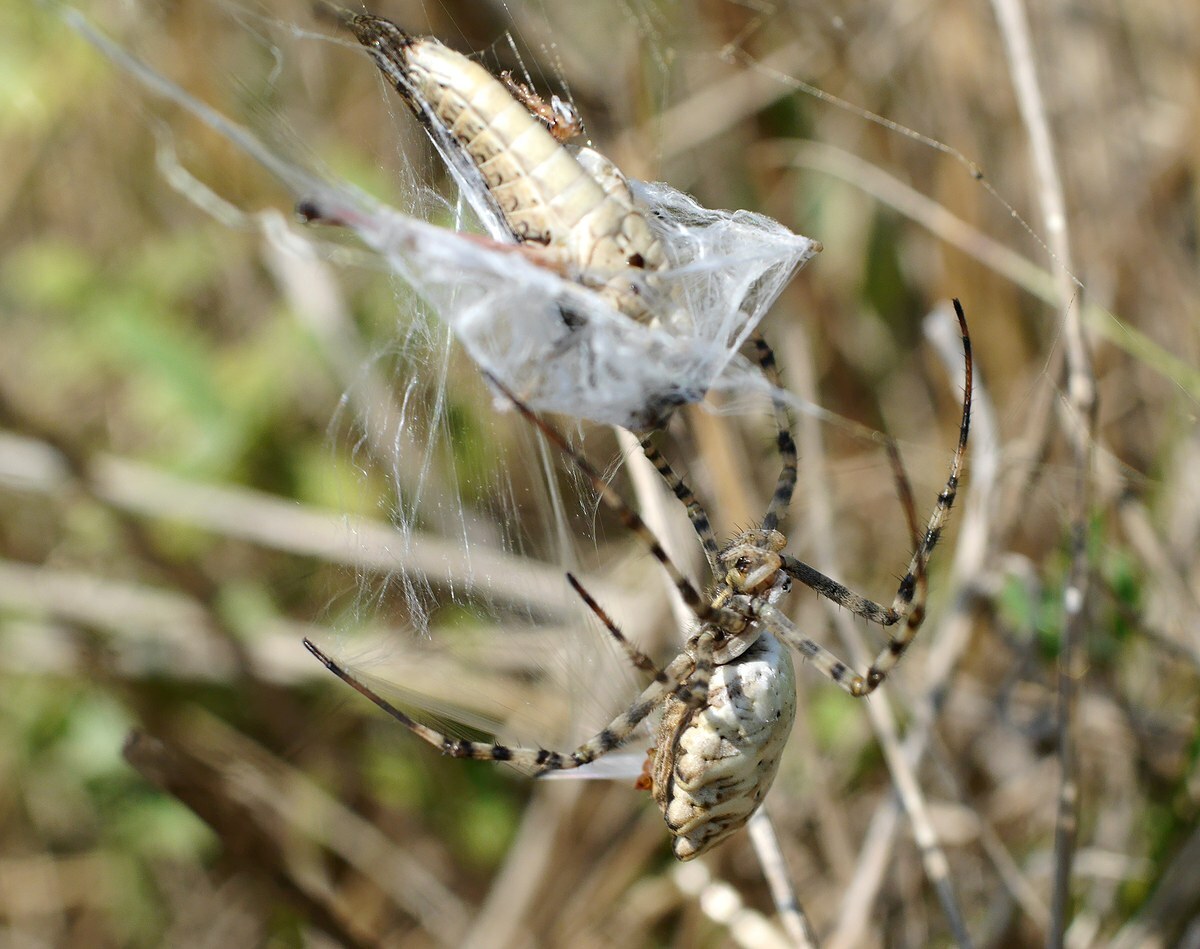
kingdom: Animalia
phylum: Arthropoda
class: Arachnida
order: Araneae
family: Araneidae
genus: Argiope
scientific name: Argiope lobata
